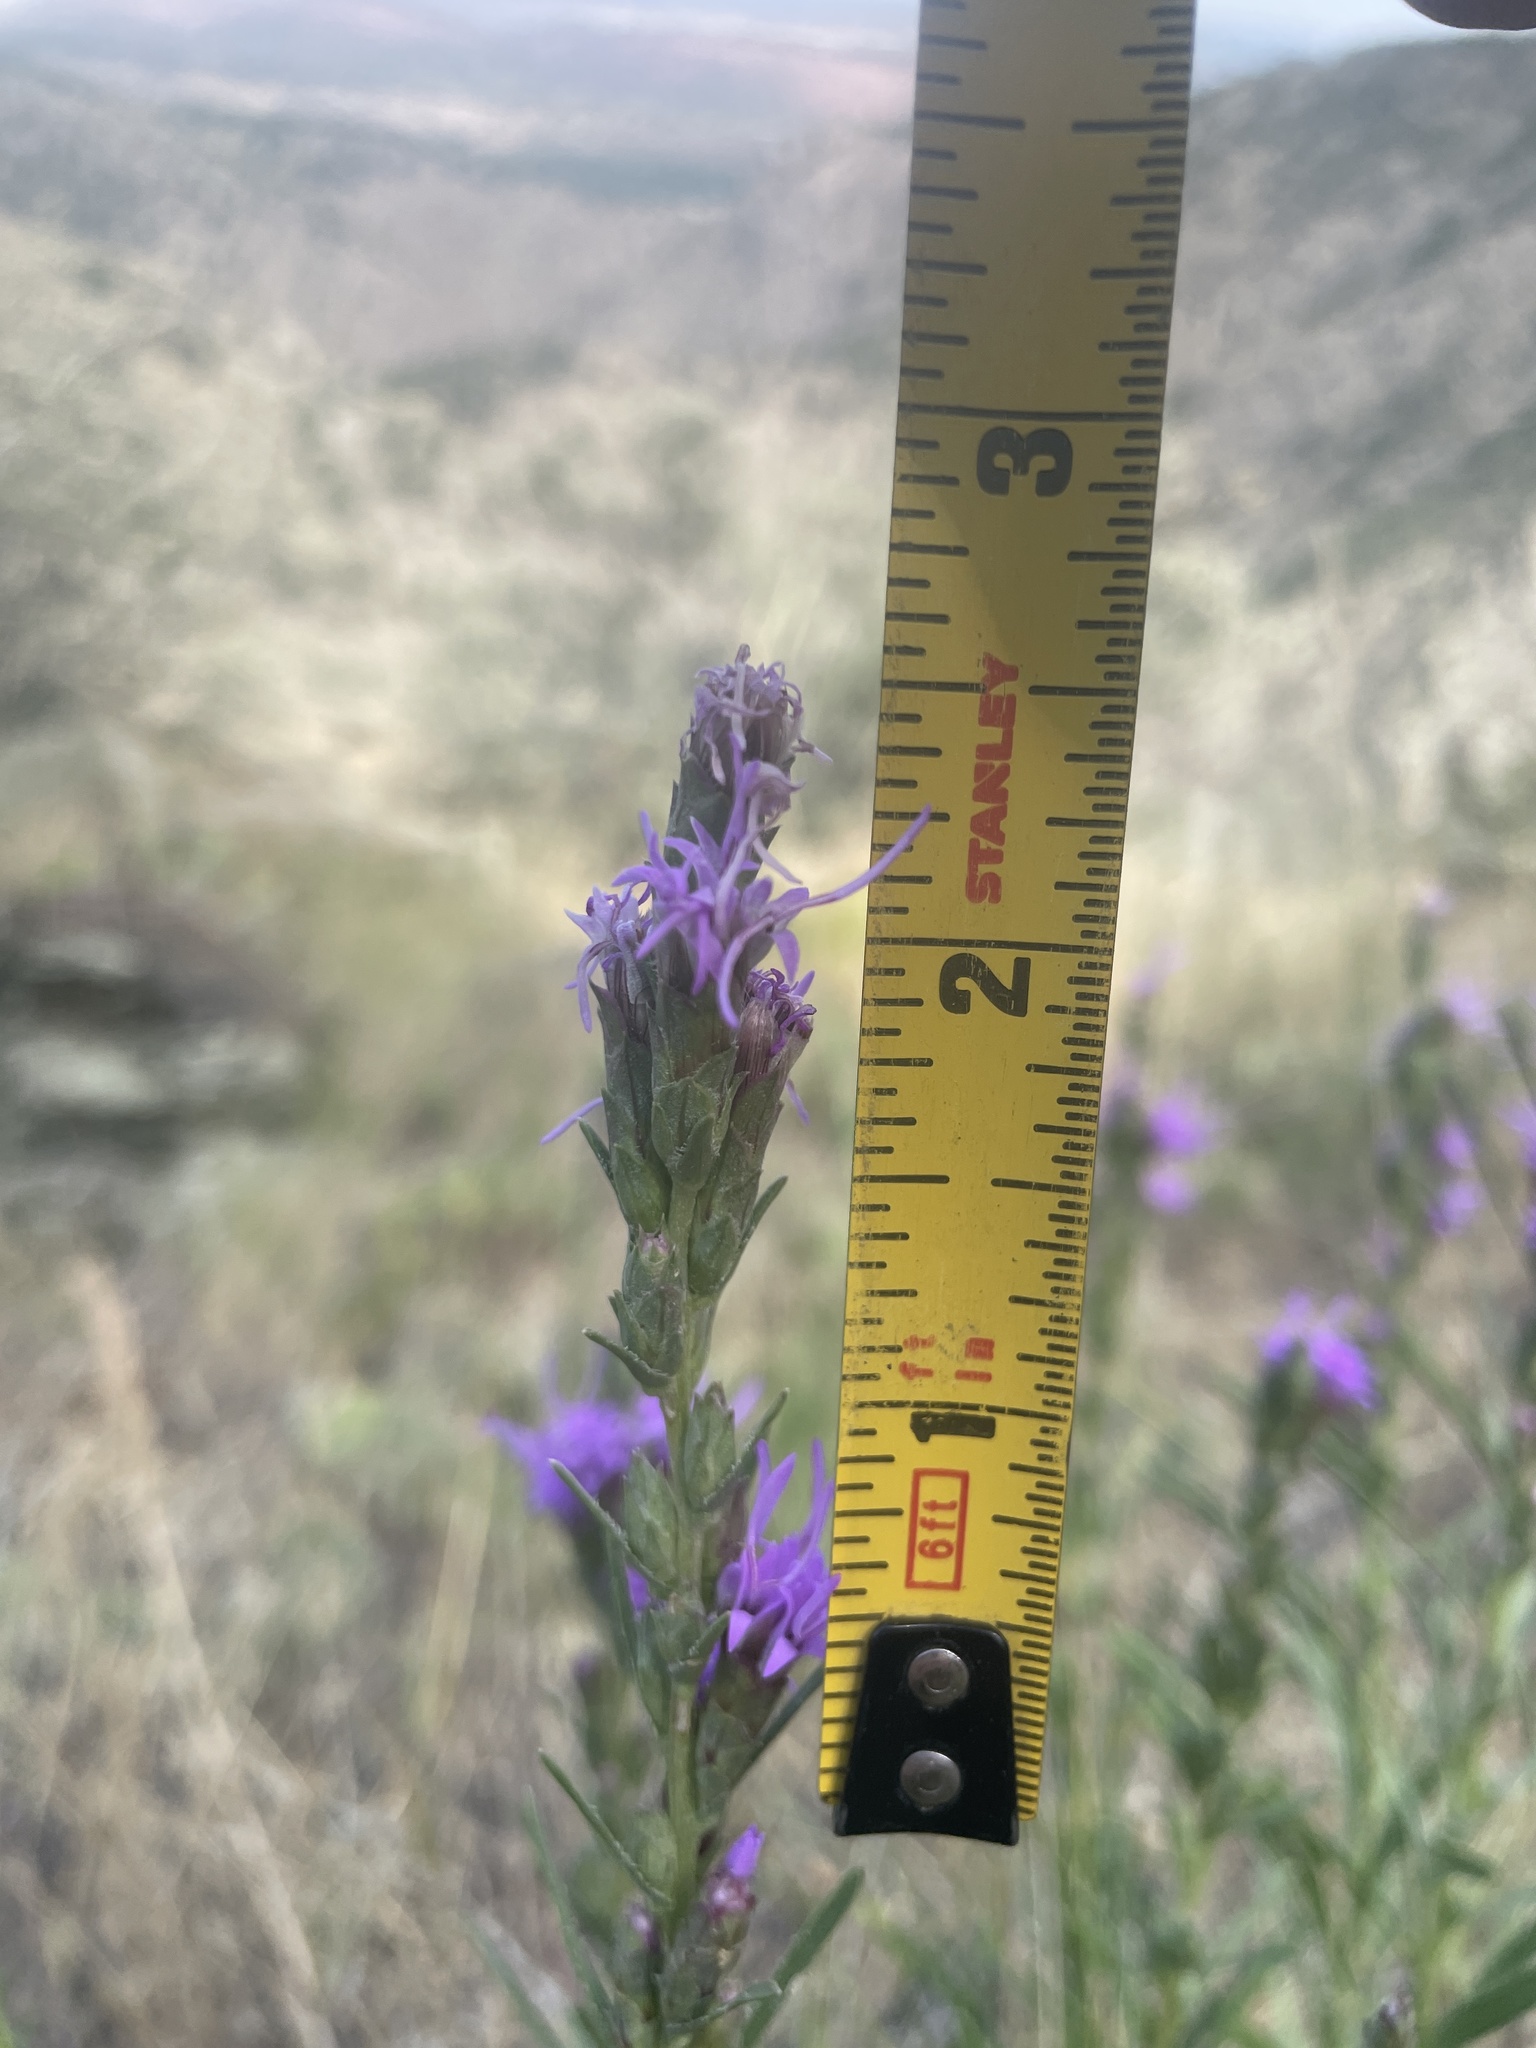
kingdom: Plantae
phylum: Tracheophyta
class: Magnoliopsida
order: Asterales
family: Asteraceae
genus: Liatris
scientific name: Liatris punctata
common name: Dotted gayfeather
